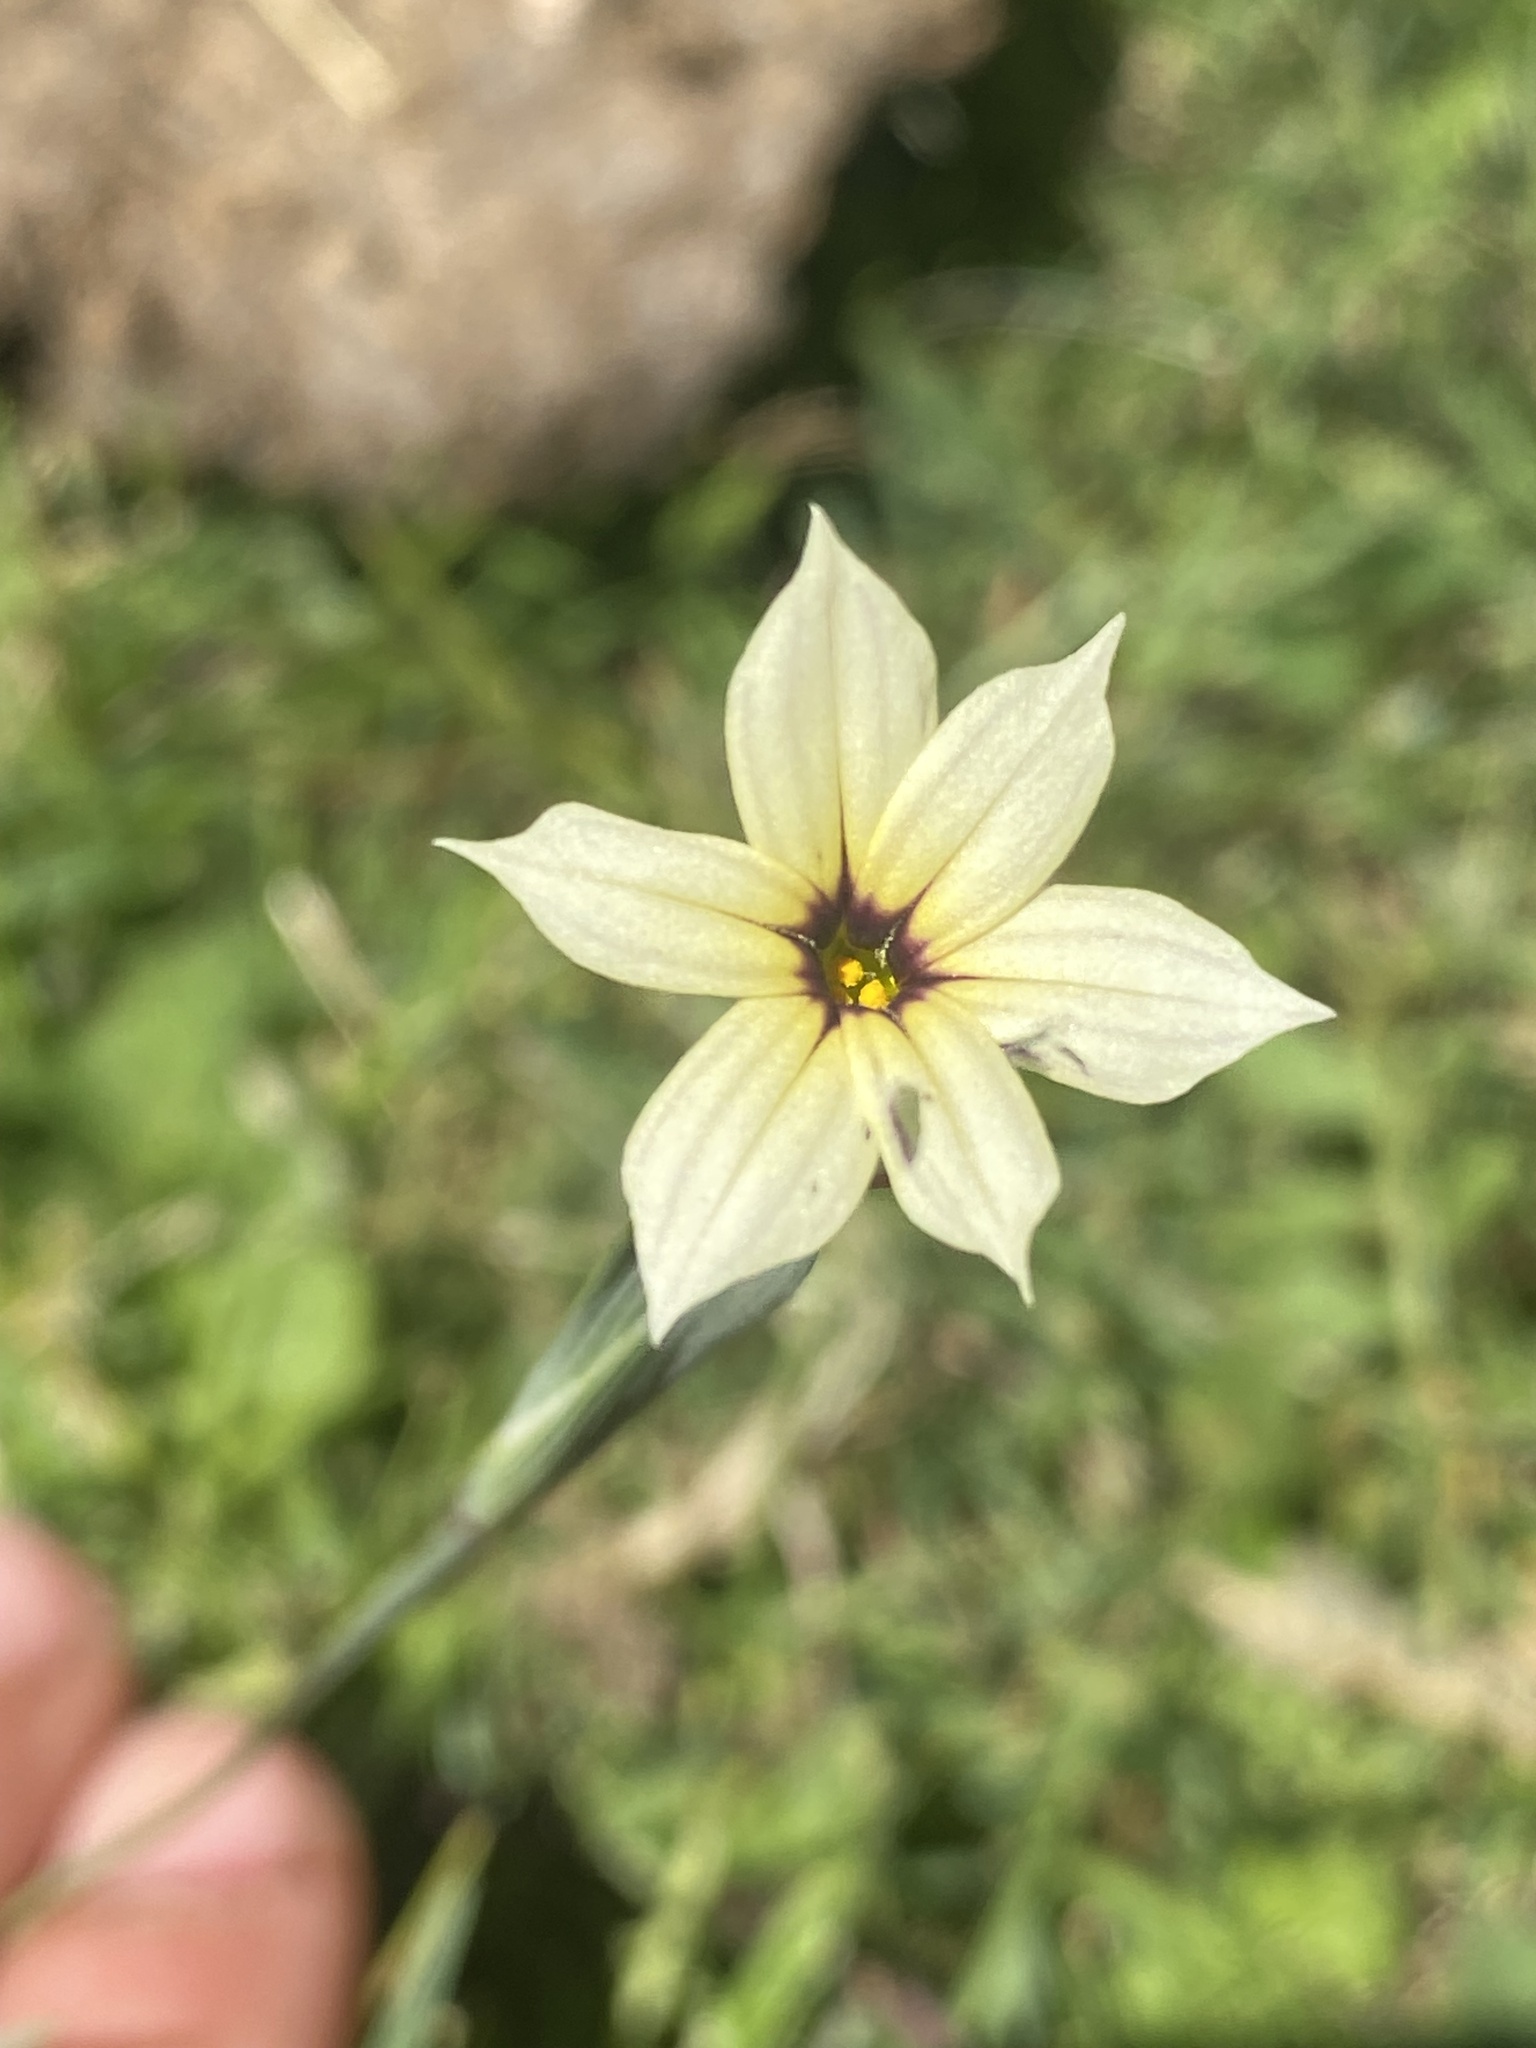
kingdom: Plantae
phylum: Tracheophyta
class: Liliopsida
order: Asparagales
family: Iridaceae
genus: Sisyrinchium
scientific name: Sisyrinchium micranthum
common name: Bermuda pigroot
